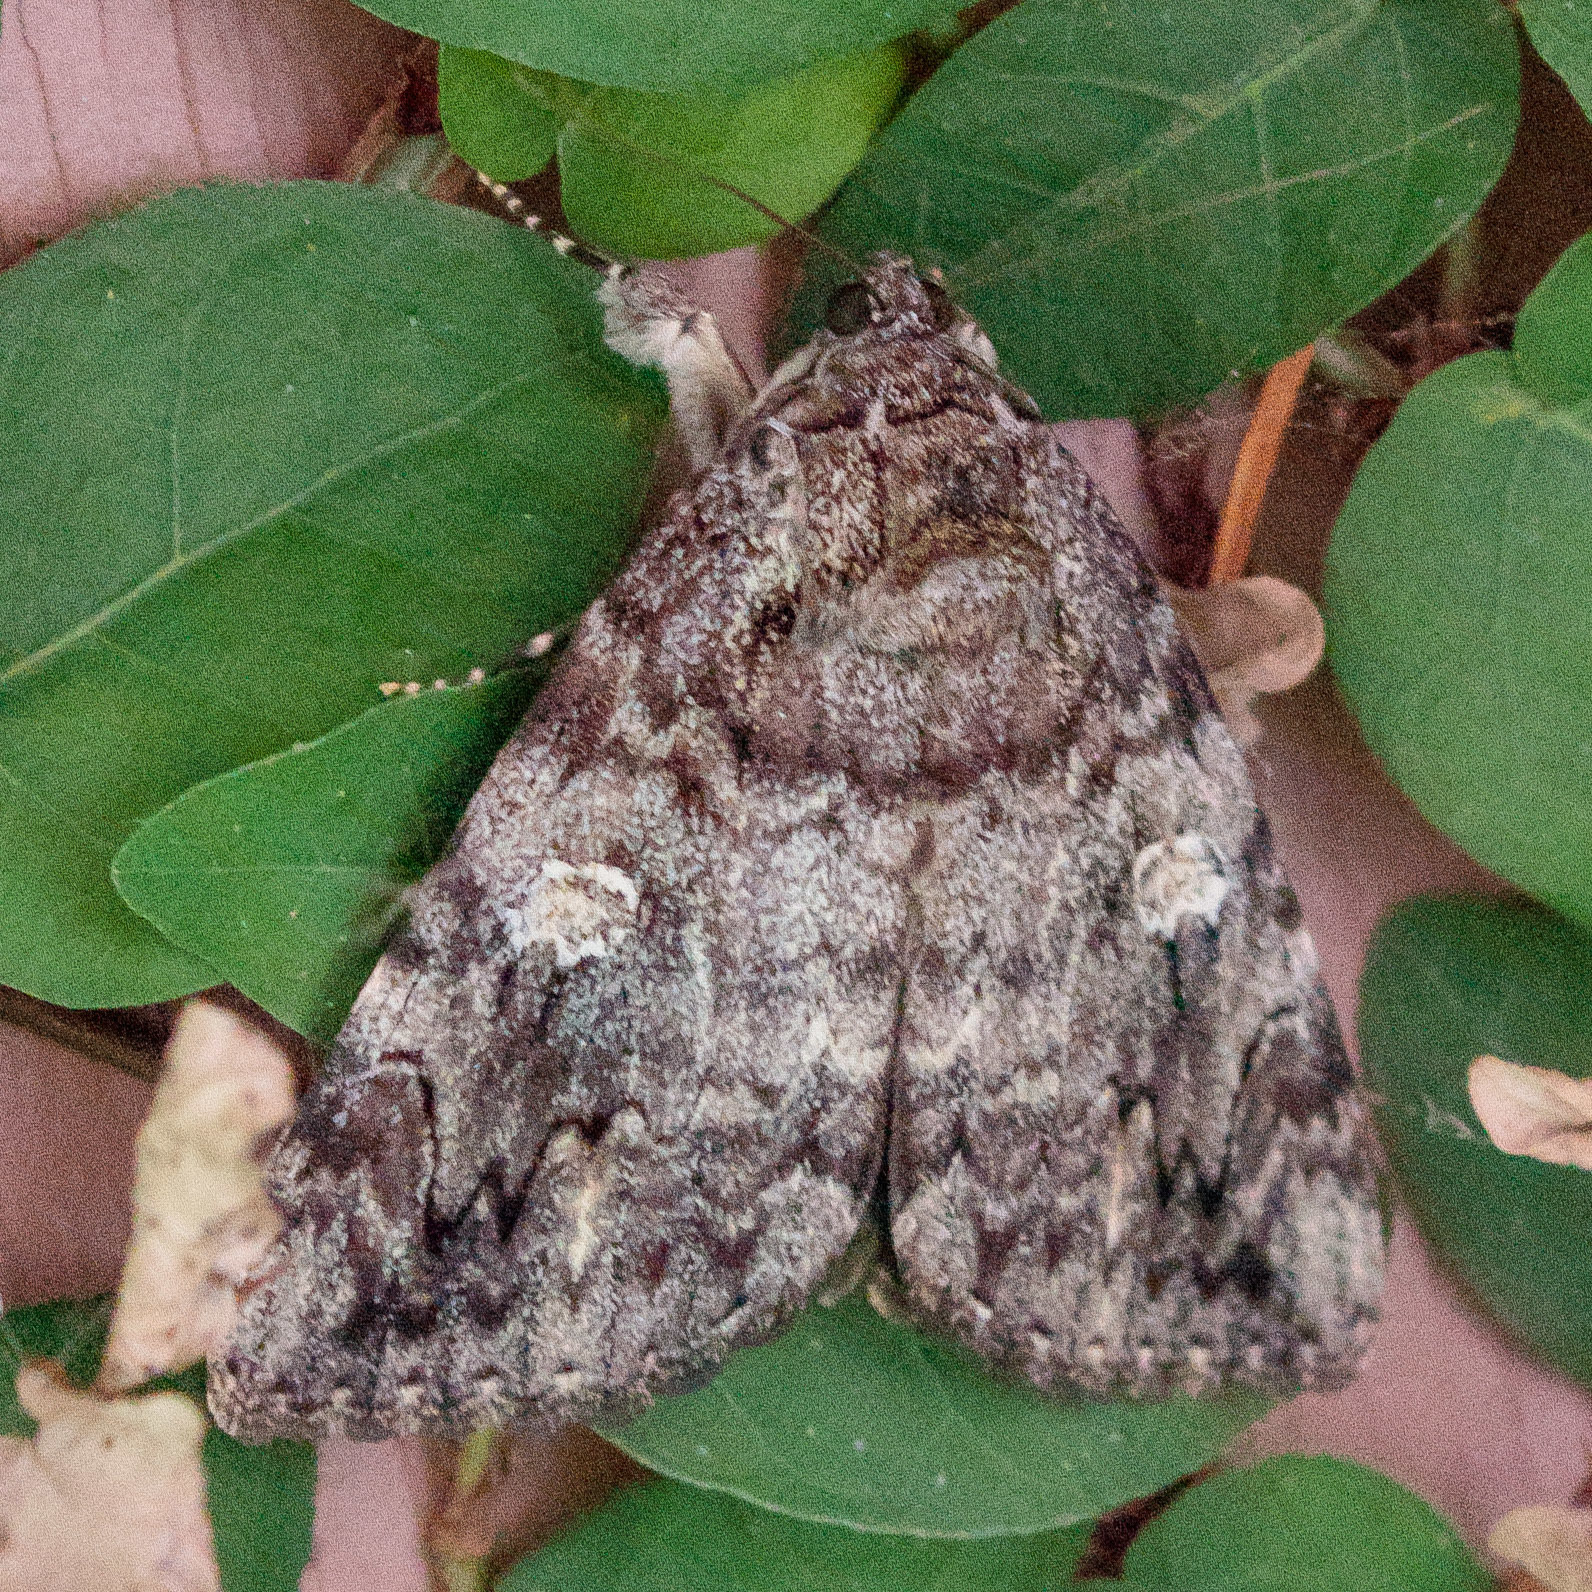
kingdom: Animalia
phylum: Arthropoda
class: Insecta
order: Lepidoptera
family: Erebidae
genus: Catocala
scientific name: Catocala ilia
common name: Ilia underwing
